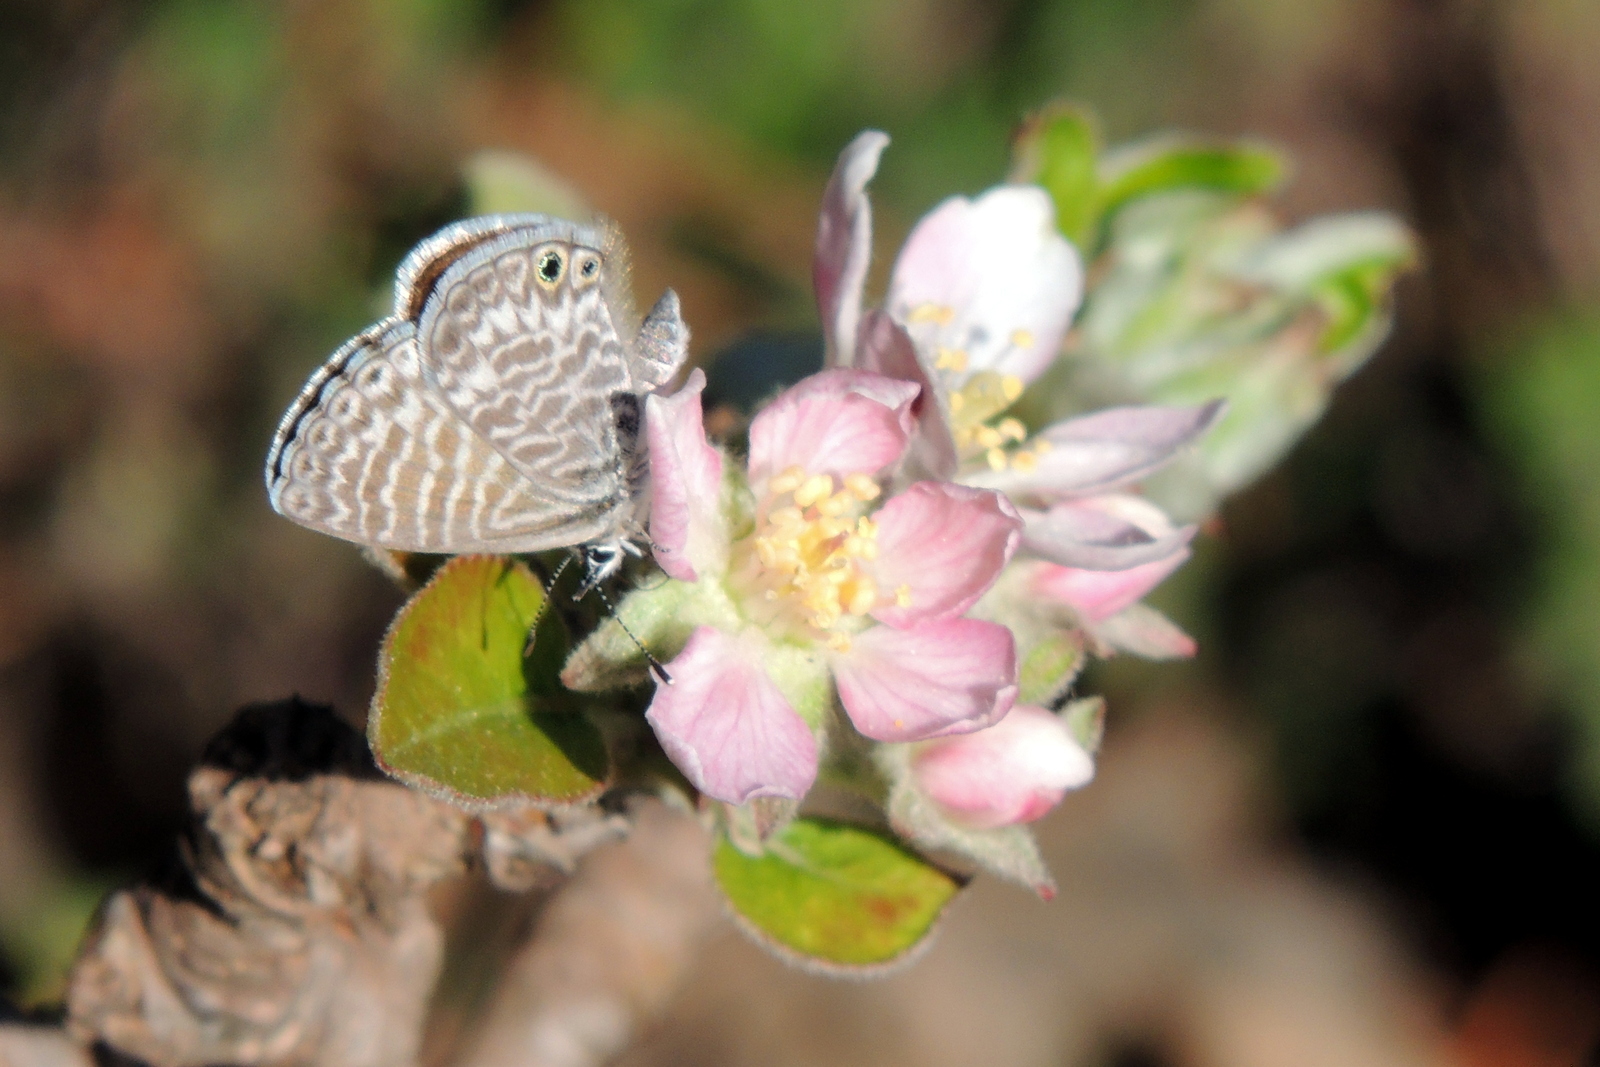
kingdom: Animalia
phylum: Arthropoda
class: Insecta
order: Lepidoptera
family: Lycaenidae
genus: Leptotes
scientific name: Leptotes marina
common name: Marine blue
